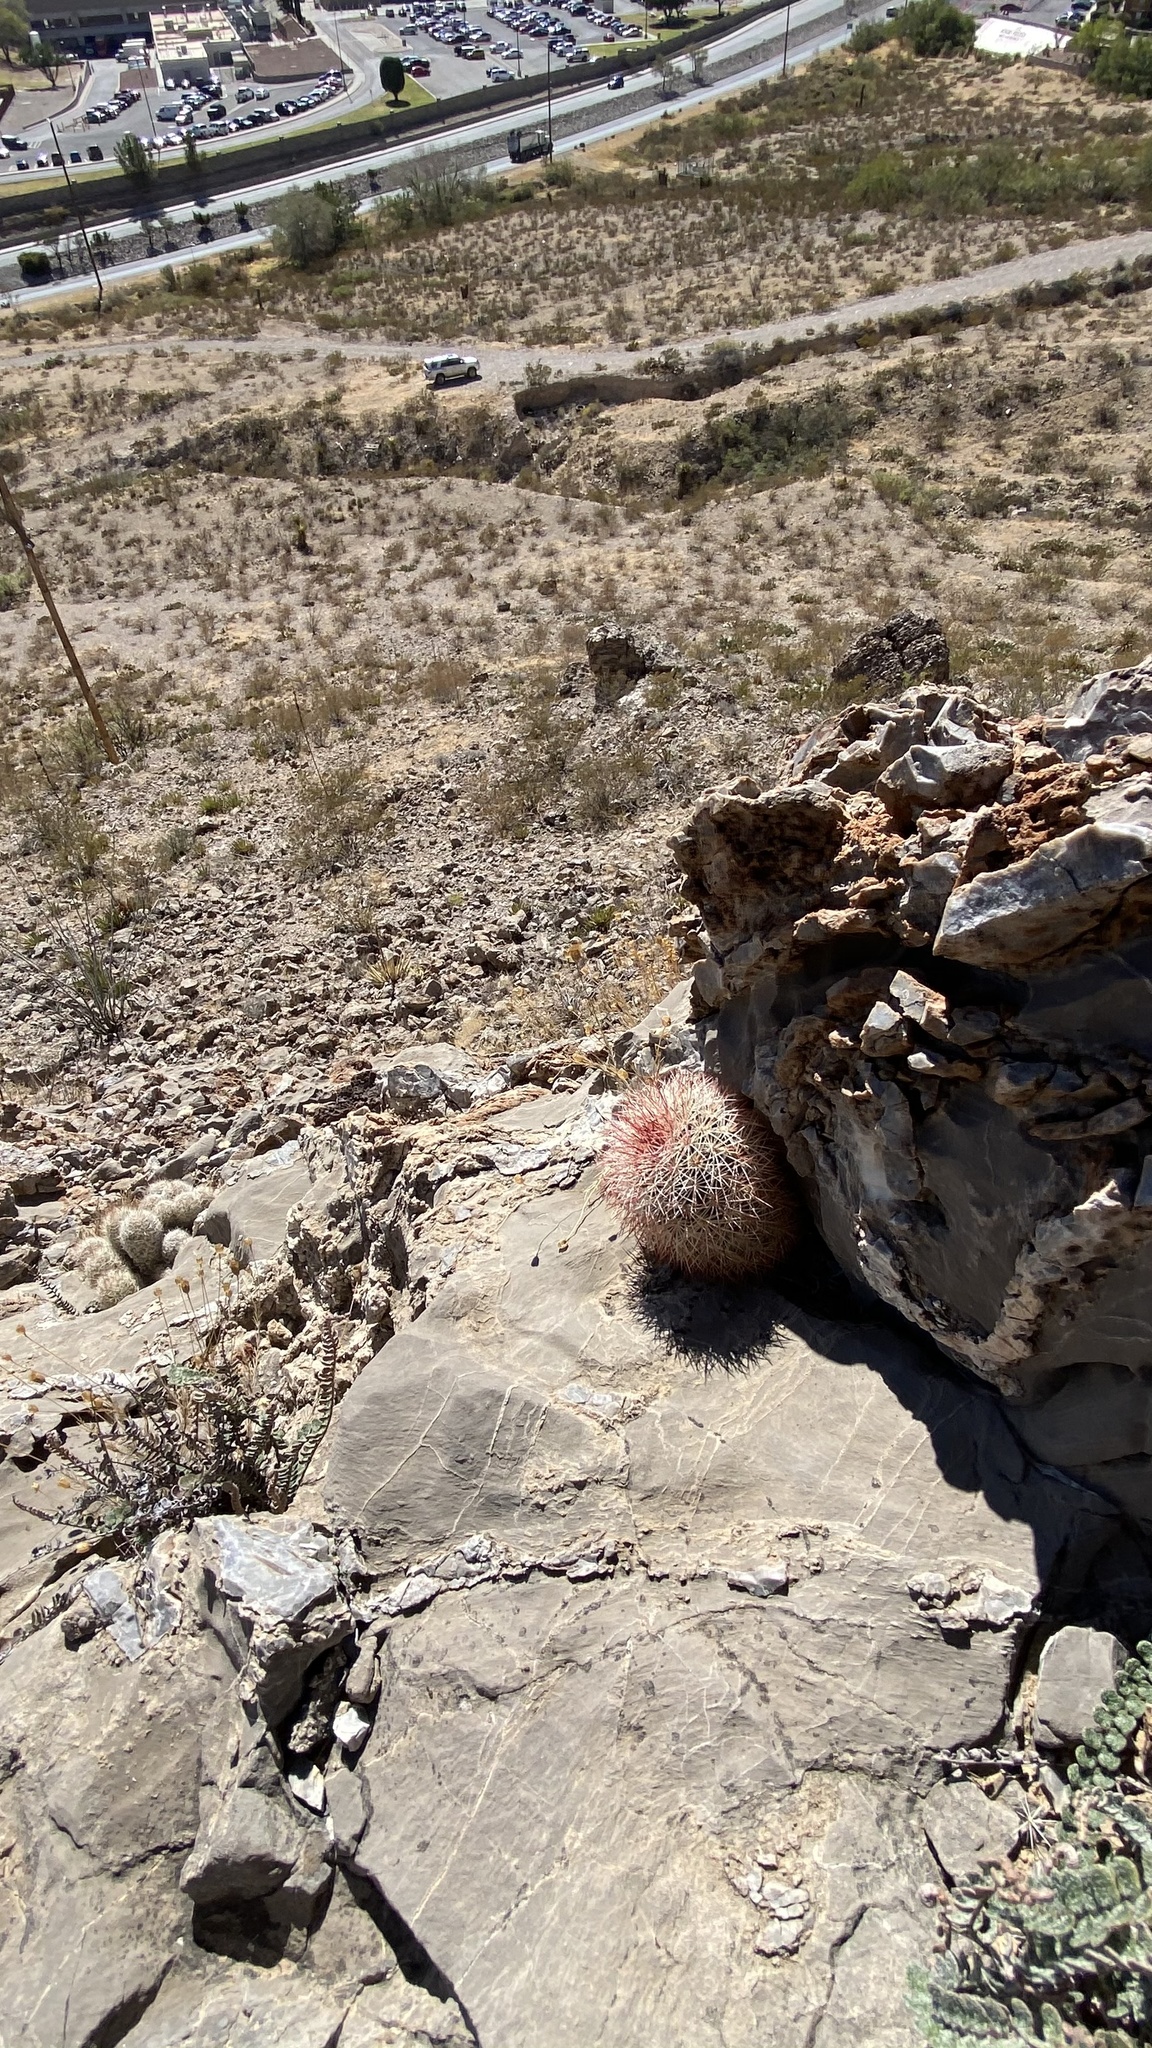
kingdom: Plantae
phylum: Tracheophyta
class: Magnoliopsida
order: Caryophyllales
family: Cactaceae
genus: Echinocereus
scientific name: Echinocereus dasyacanthus
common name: Spiny hedgehog cactus
